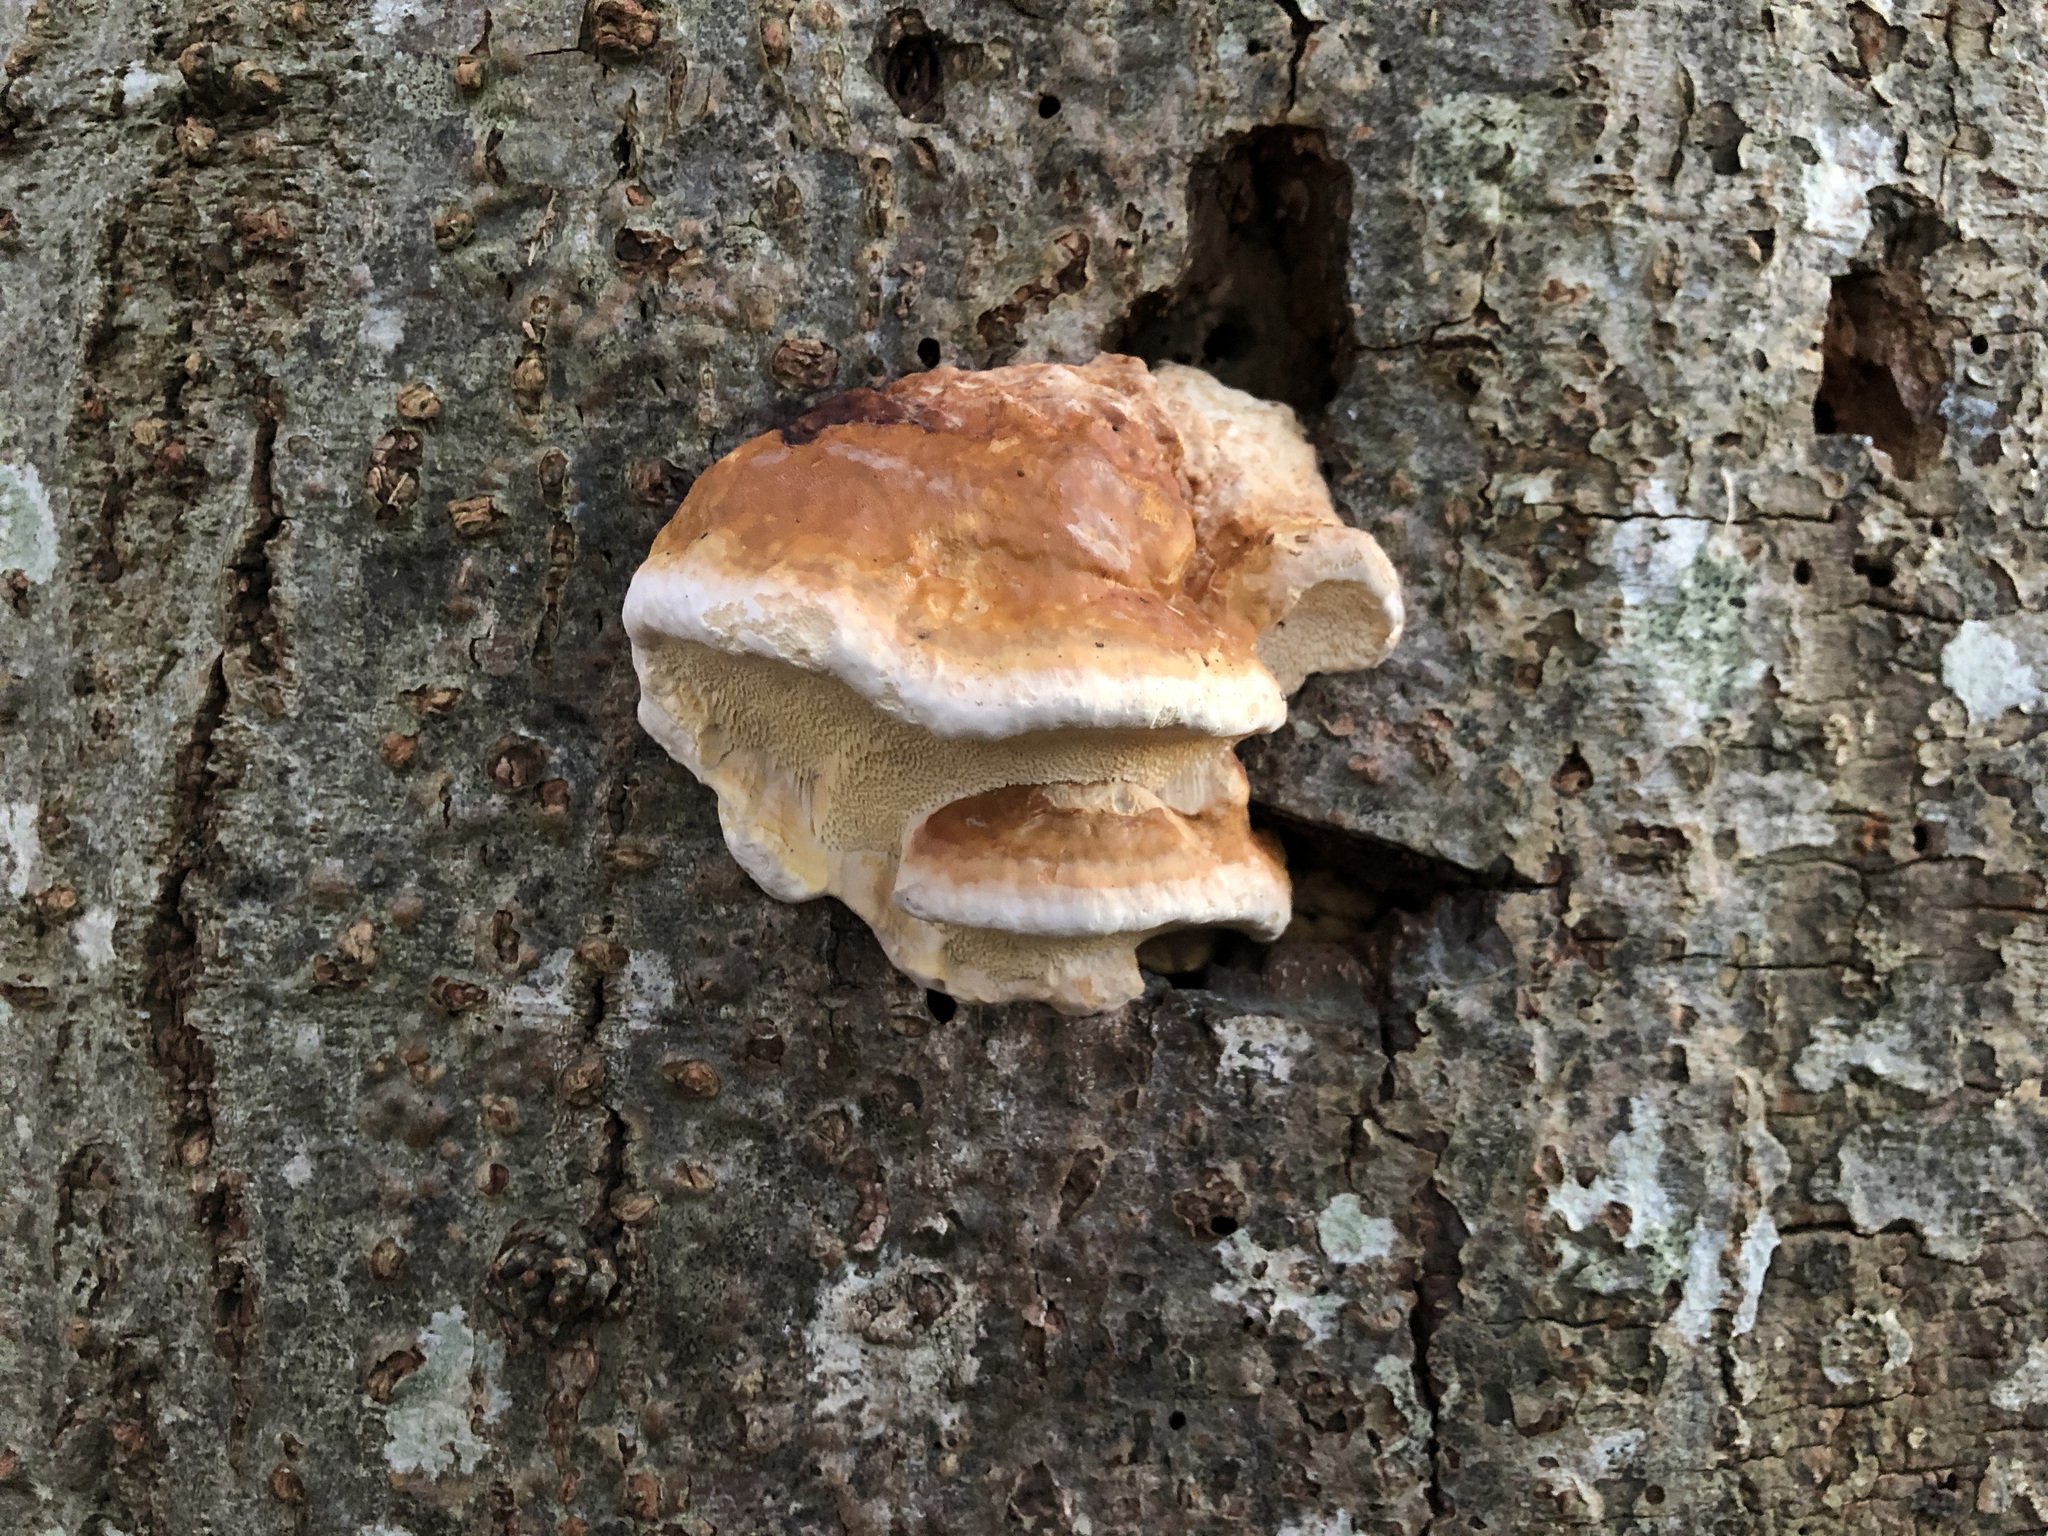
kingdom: Fungi
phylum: Basidiomycota
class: Agaricomycetes
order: Polyporales
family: Fomitopsidaceae
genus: Fomitopsis
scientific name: Fomitopsis pinicola
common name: Red-belted bracket
